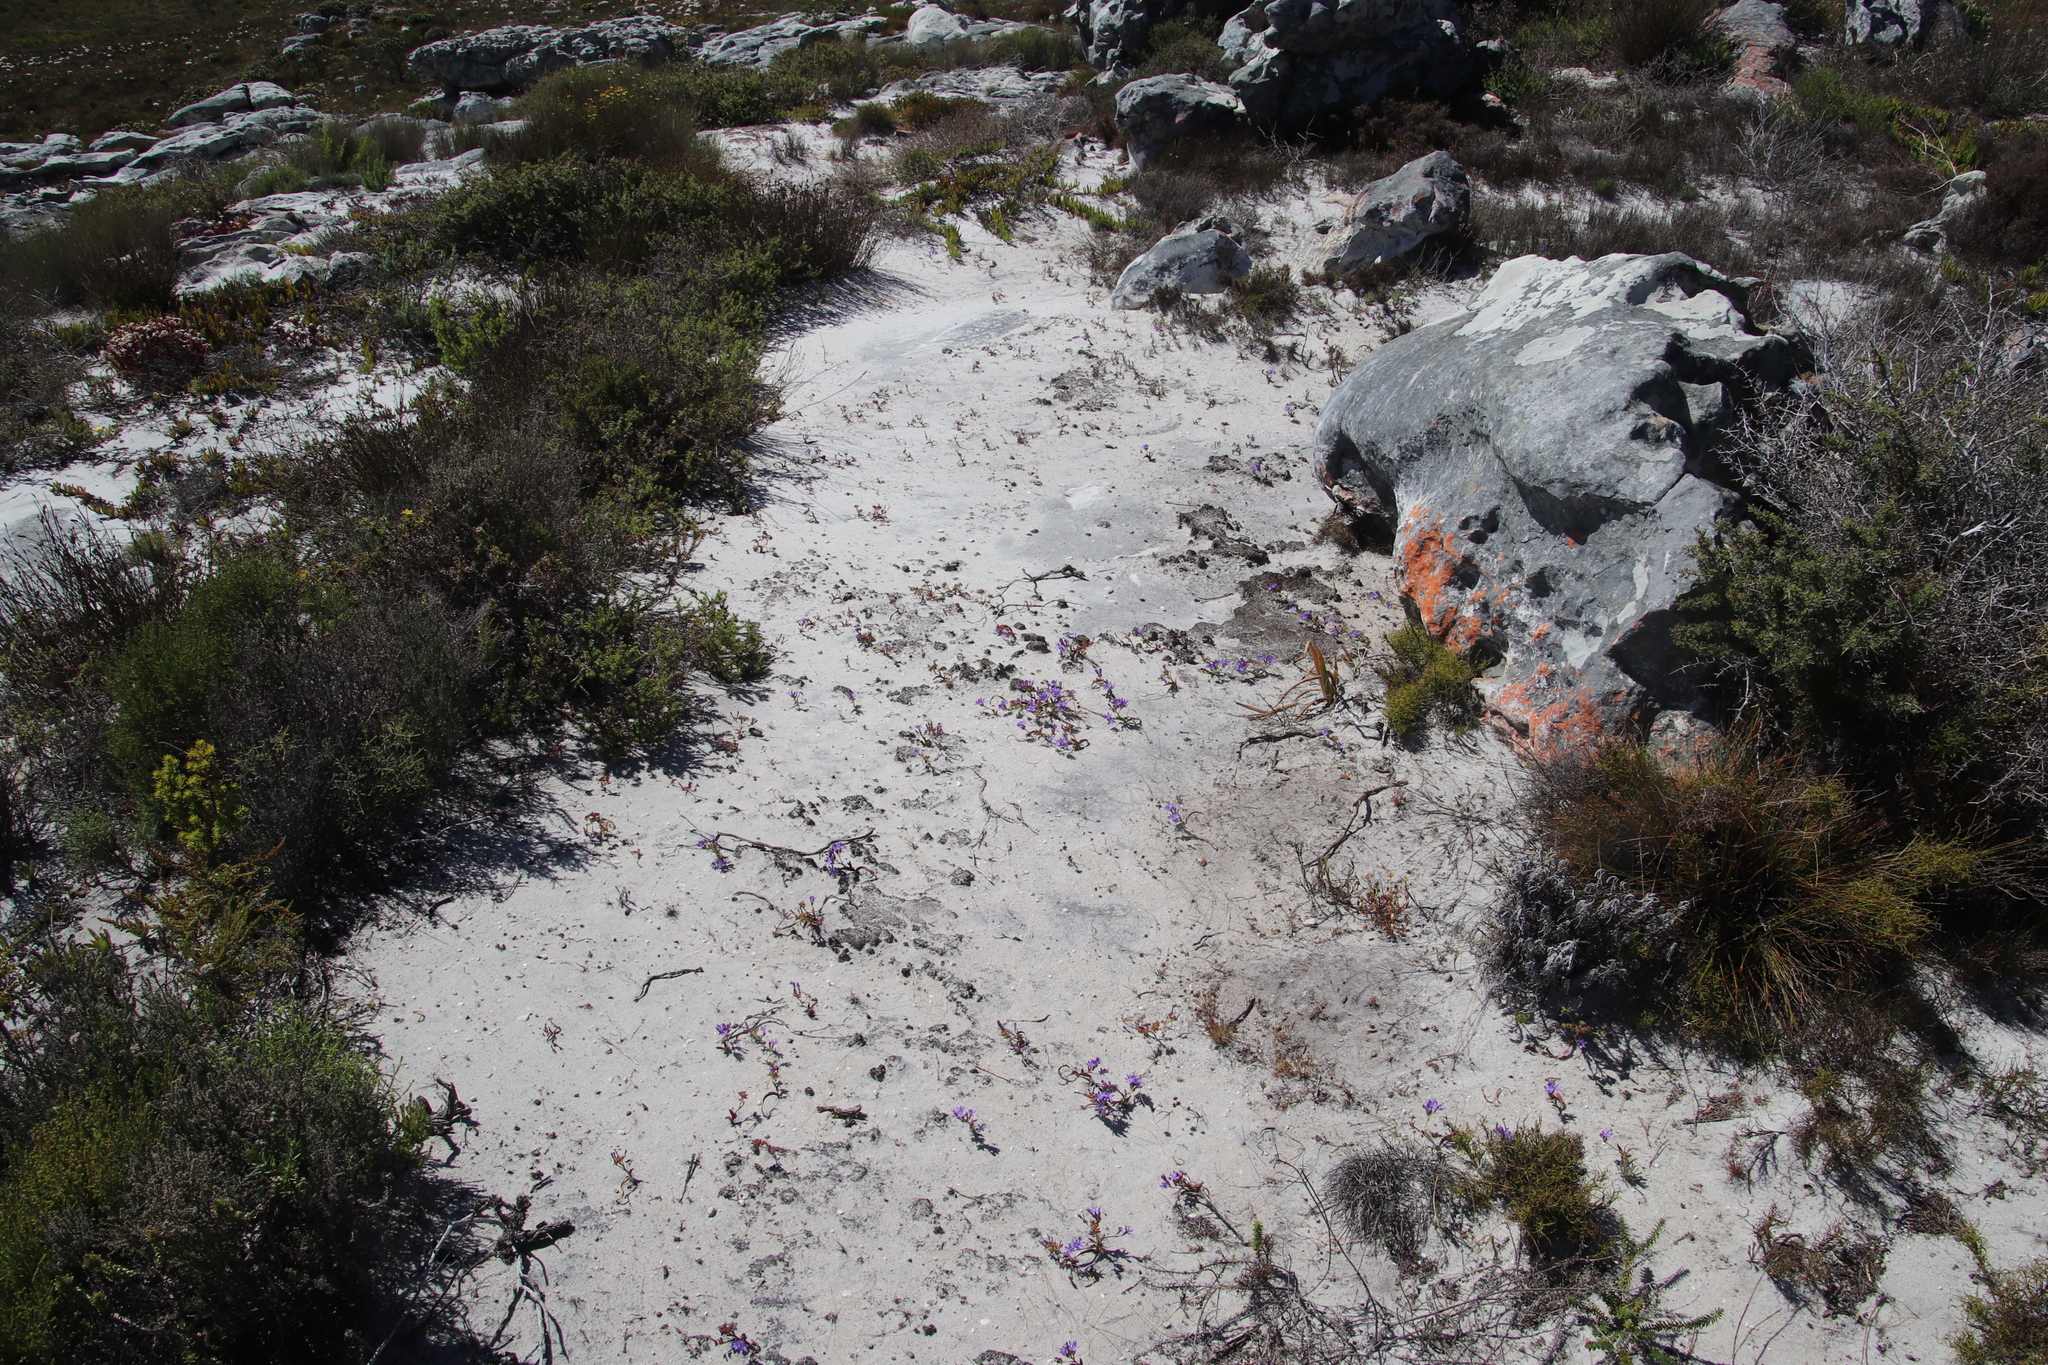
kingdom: Plantae
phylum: Tracheophyta
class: Liliopsida
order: Asparagales
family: Iridaceae
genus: Codonorhiza
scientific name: Codonorhiza corymbosa
